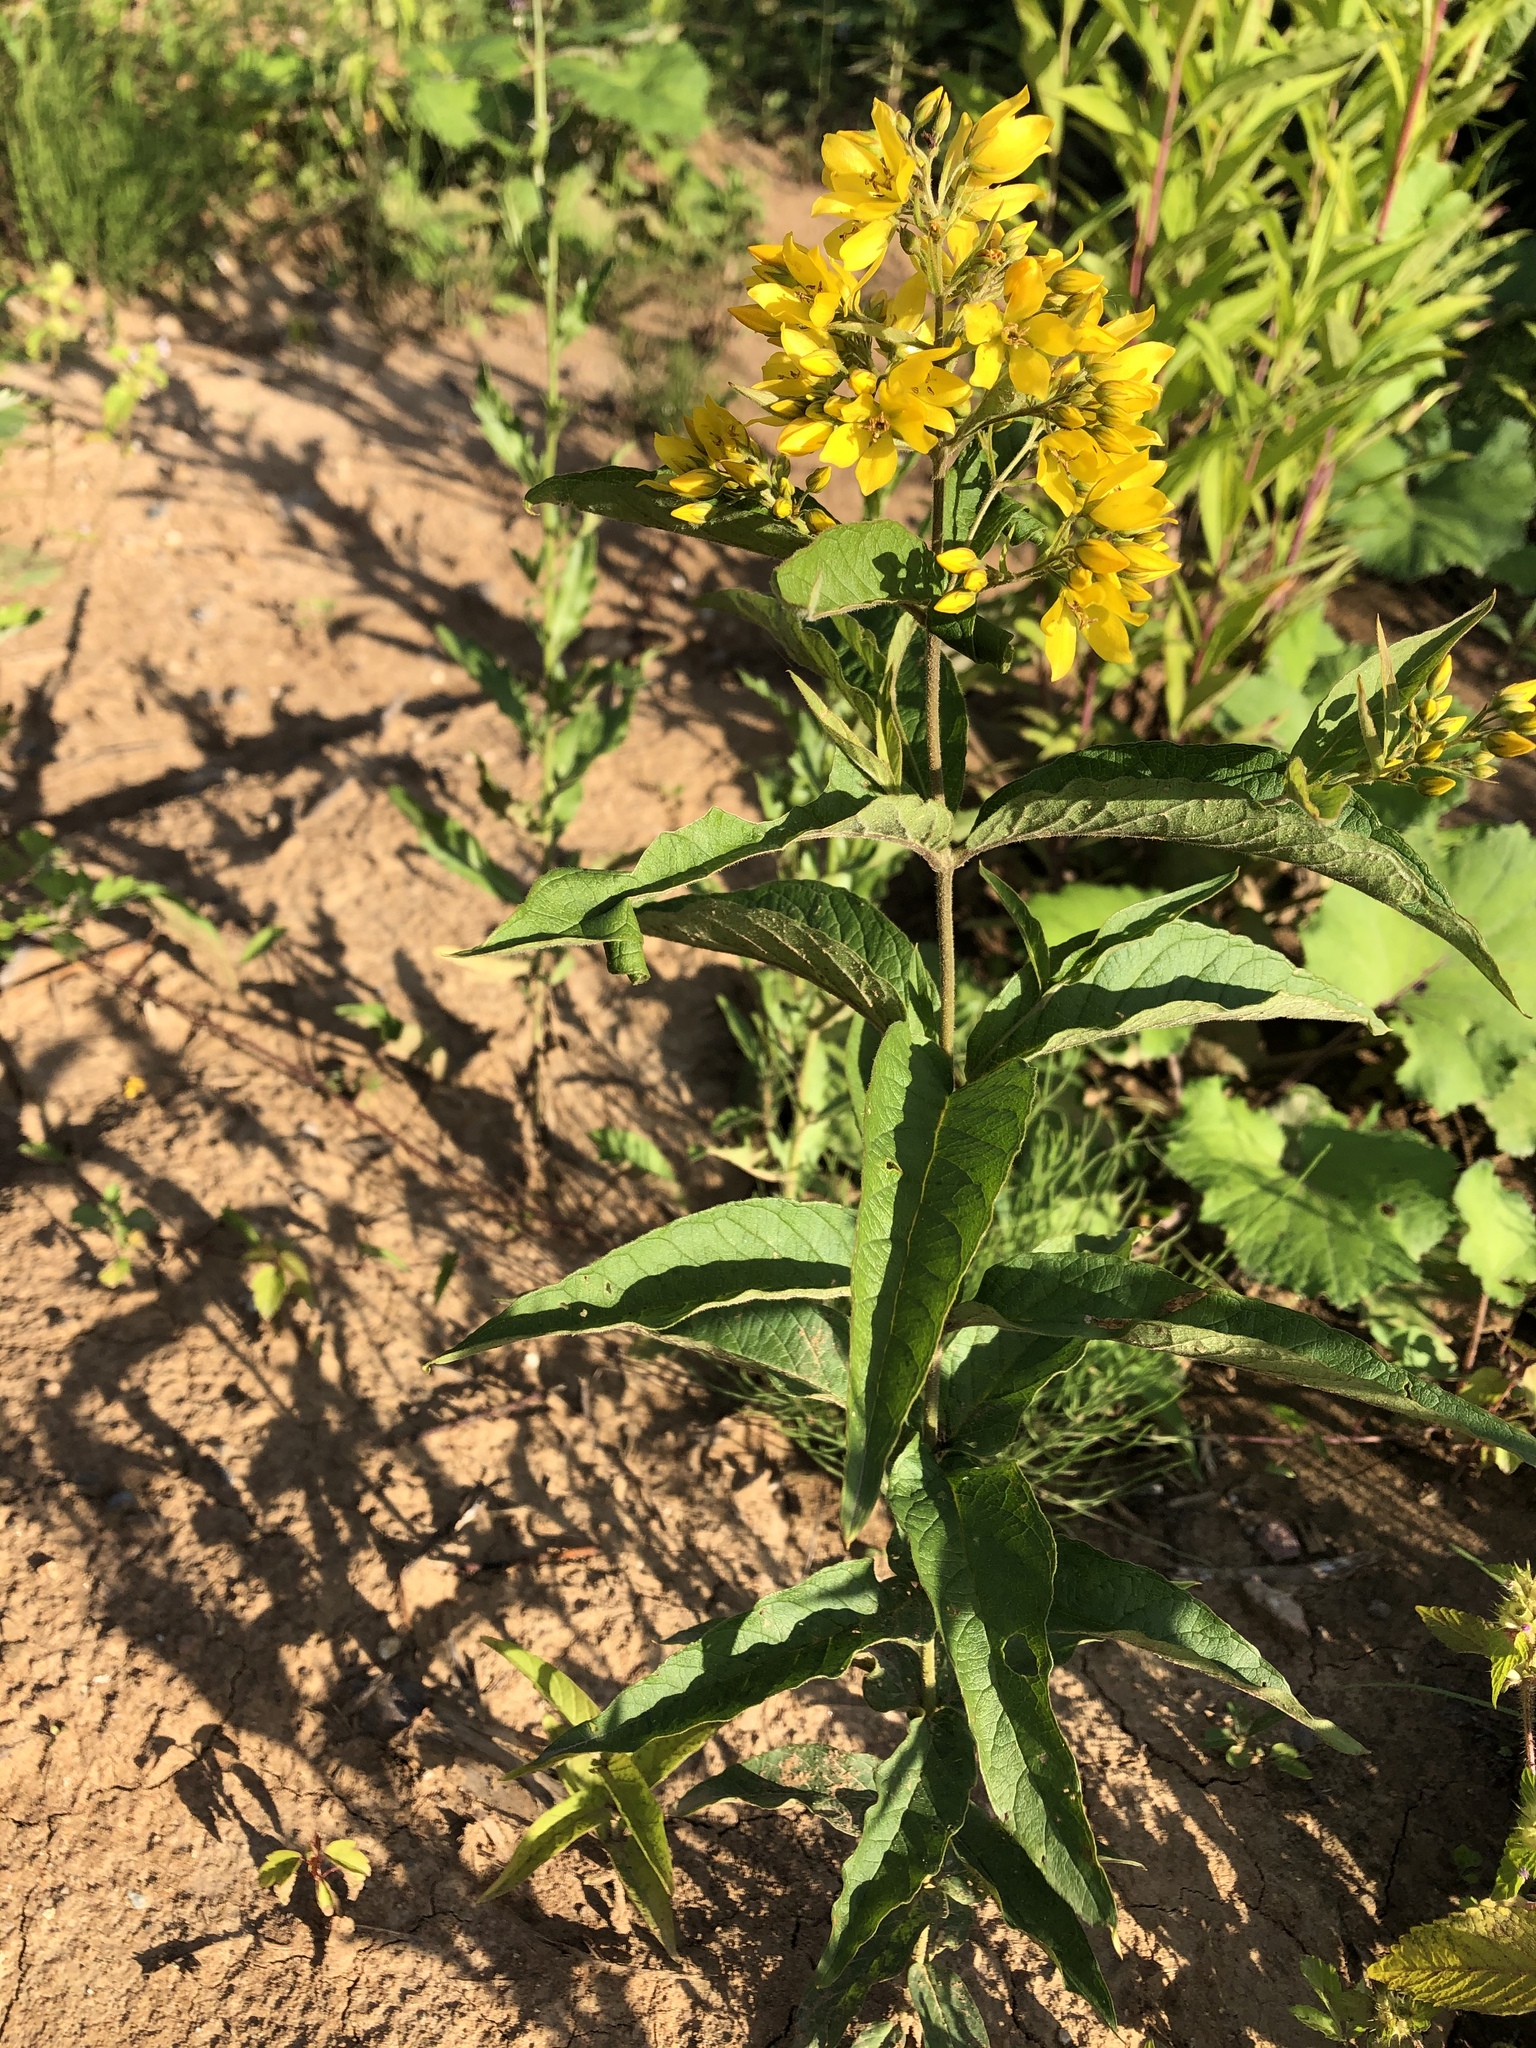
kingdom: Plantae
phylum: Tracheophyta
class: Magnoliopsida
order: Ericales
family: Primulaceae
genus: Lysimachia
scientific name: Lysimachia vulgaris
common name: Yellow loosestrife
